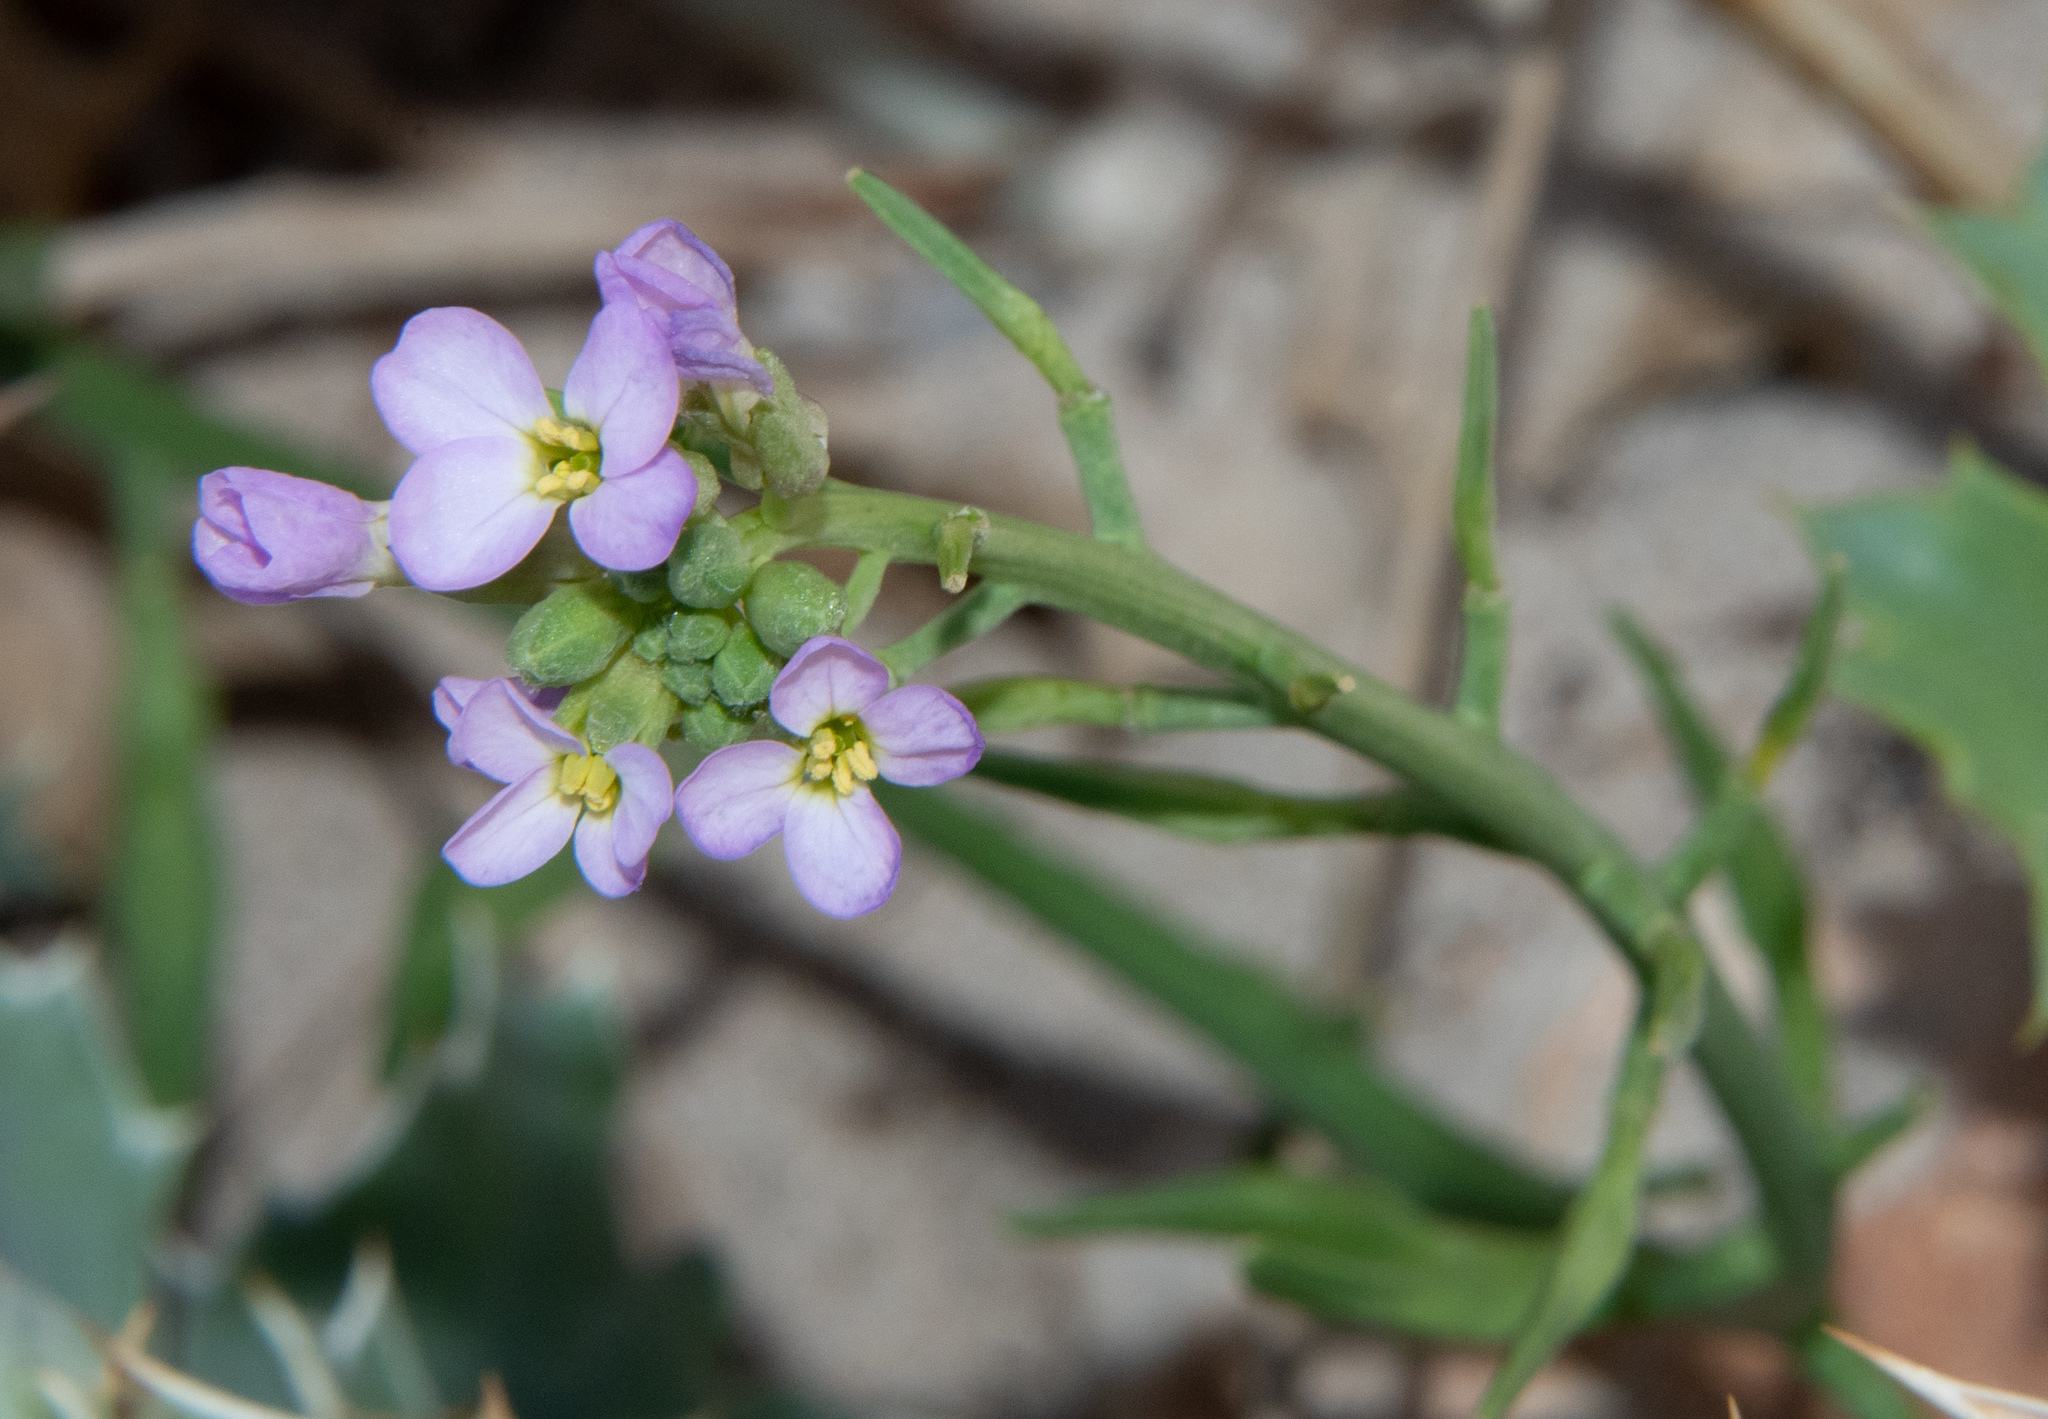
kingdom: Plantae
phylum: Tracheophyta
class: Magnoliopsida
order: Brassicales
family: Brassicaceae
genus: Cakile
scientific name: Cakile maritima
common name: Sea rocket
